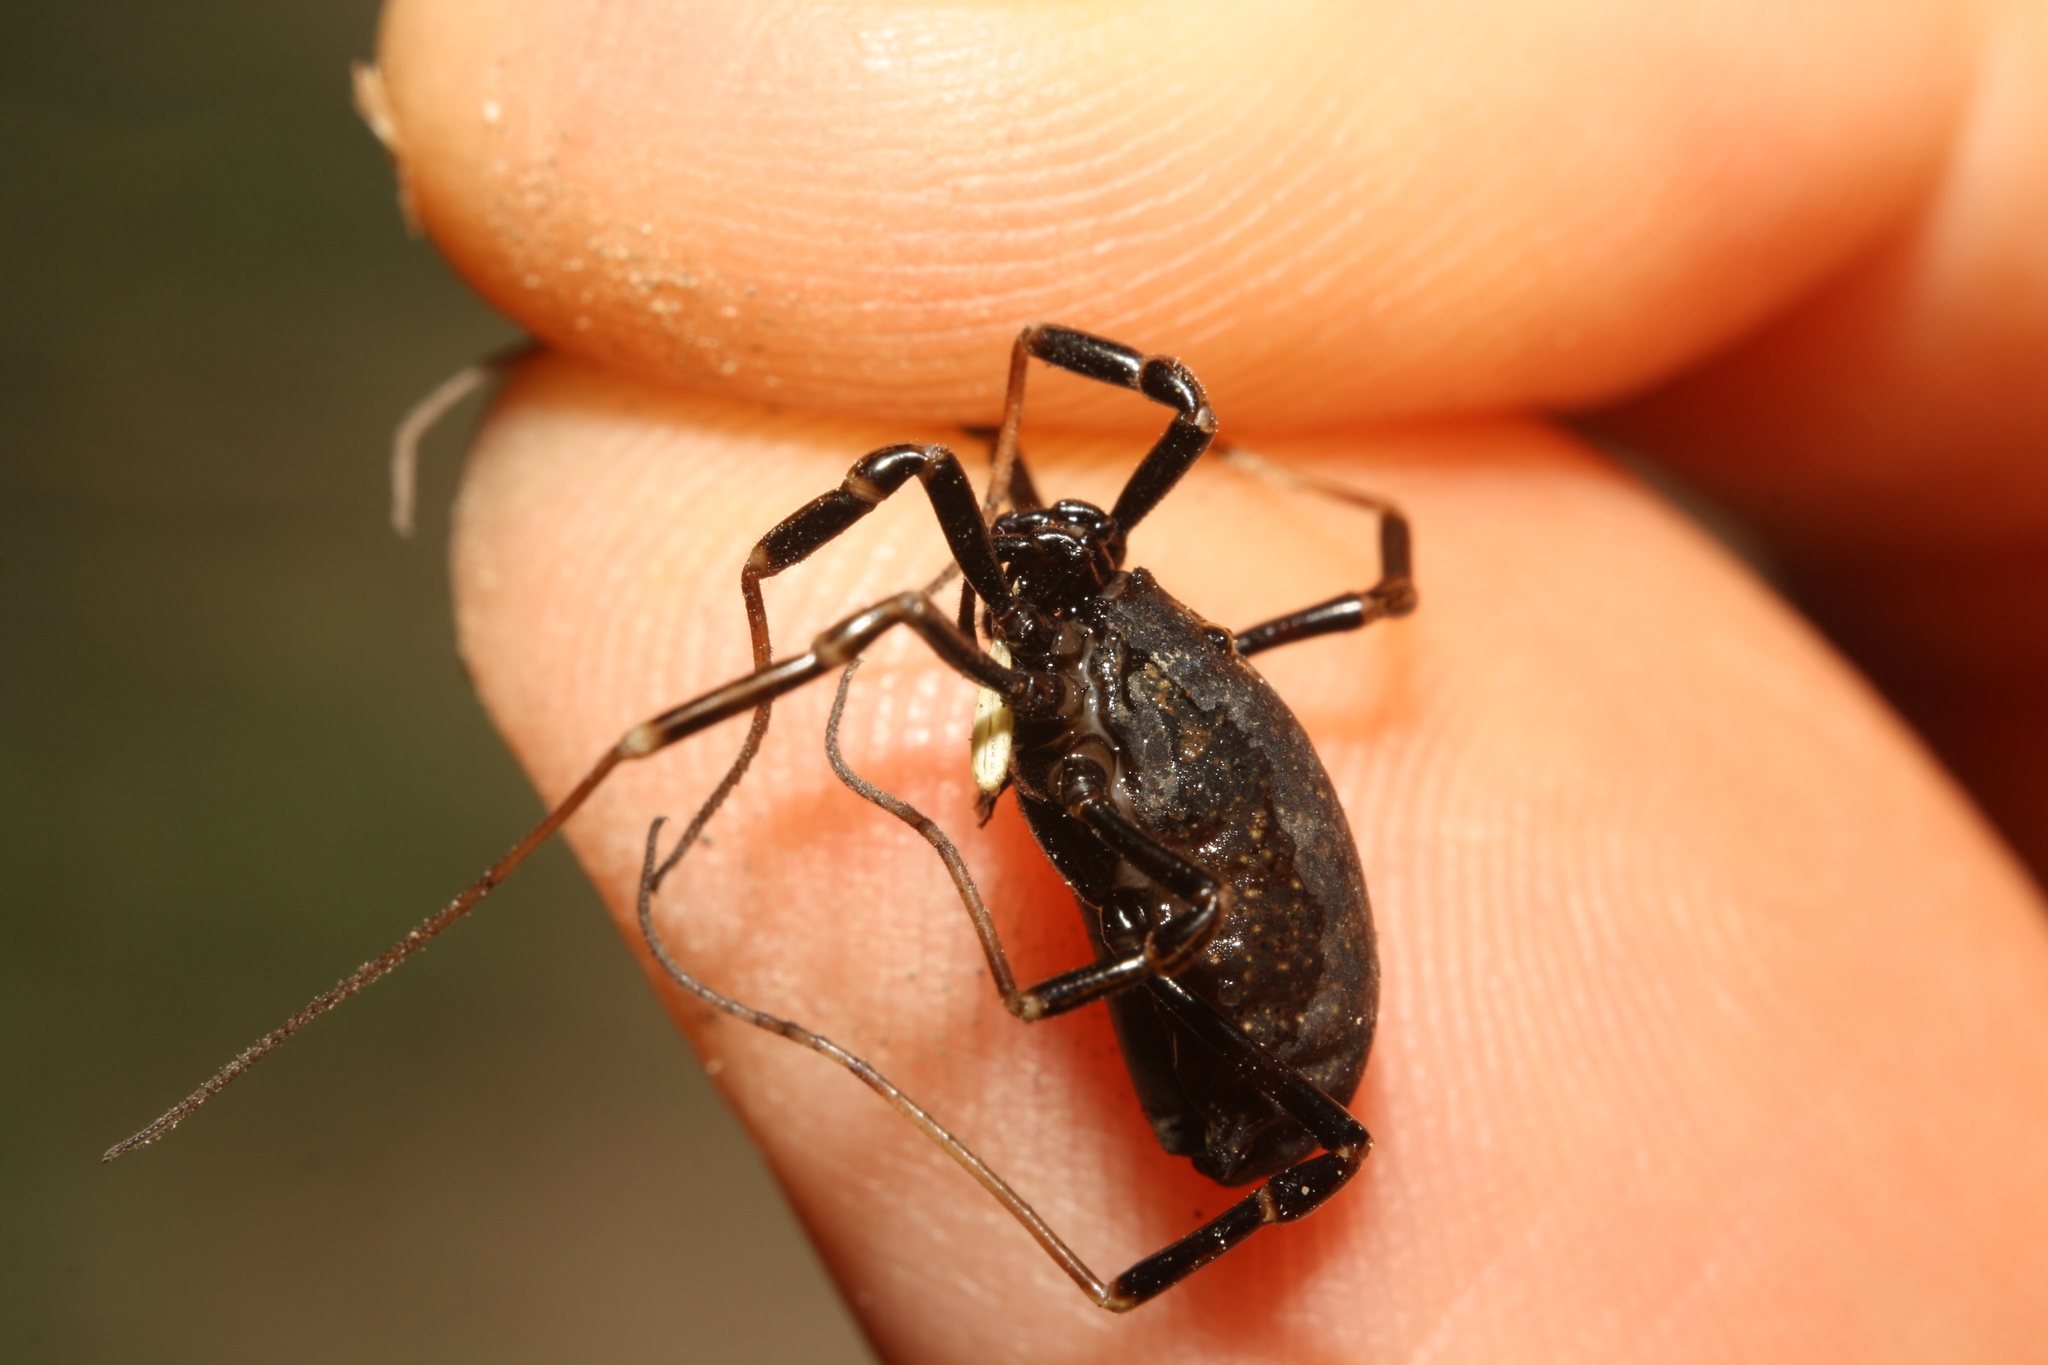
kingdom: Animalia
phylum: Arthropoda
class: Arachnida
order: Opiliones
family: Phalangiidae
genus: Egaenus
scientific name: Egaenus convexus
